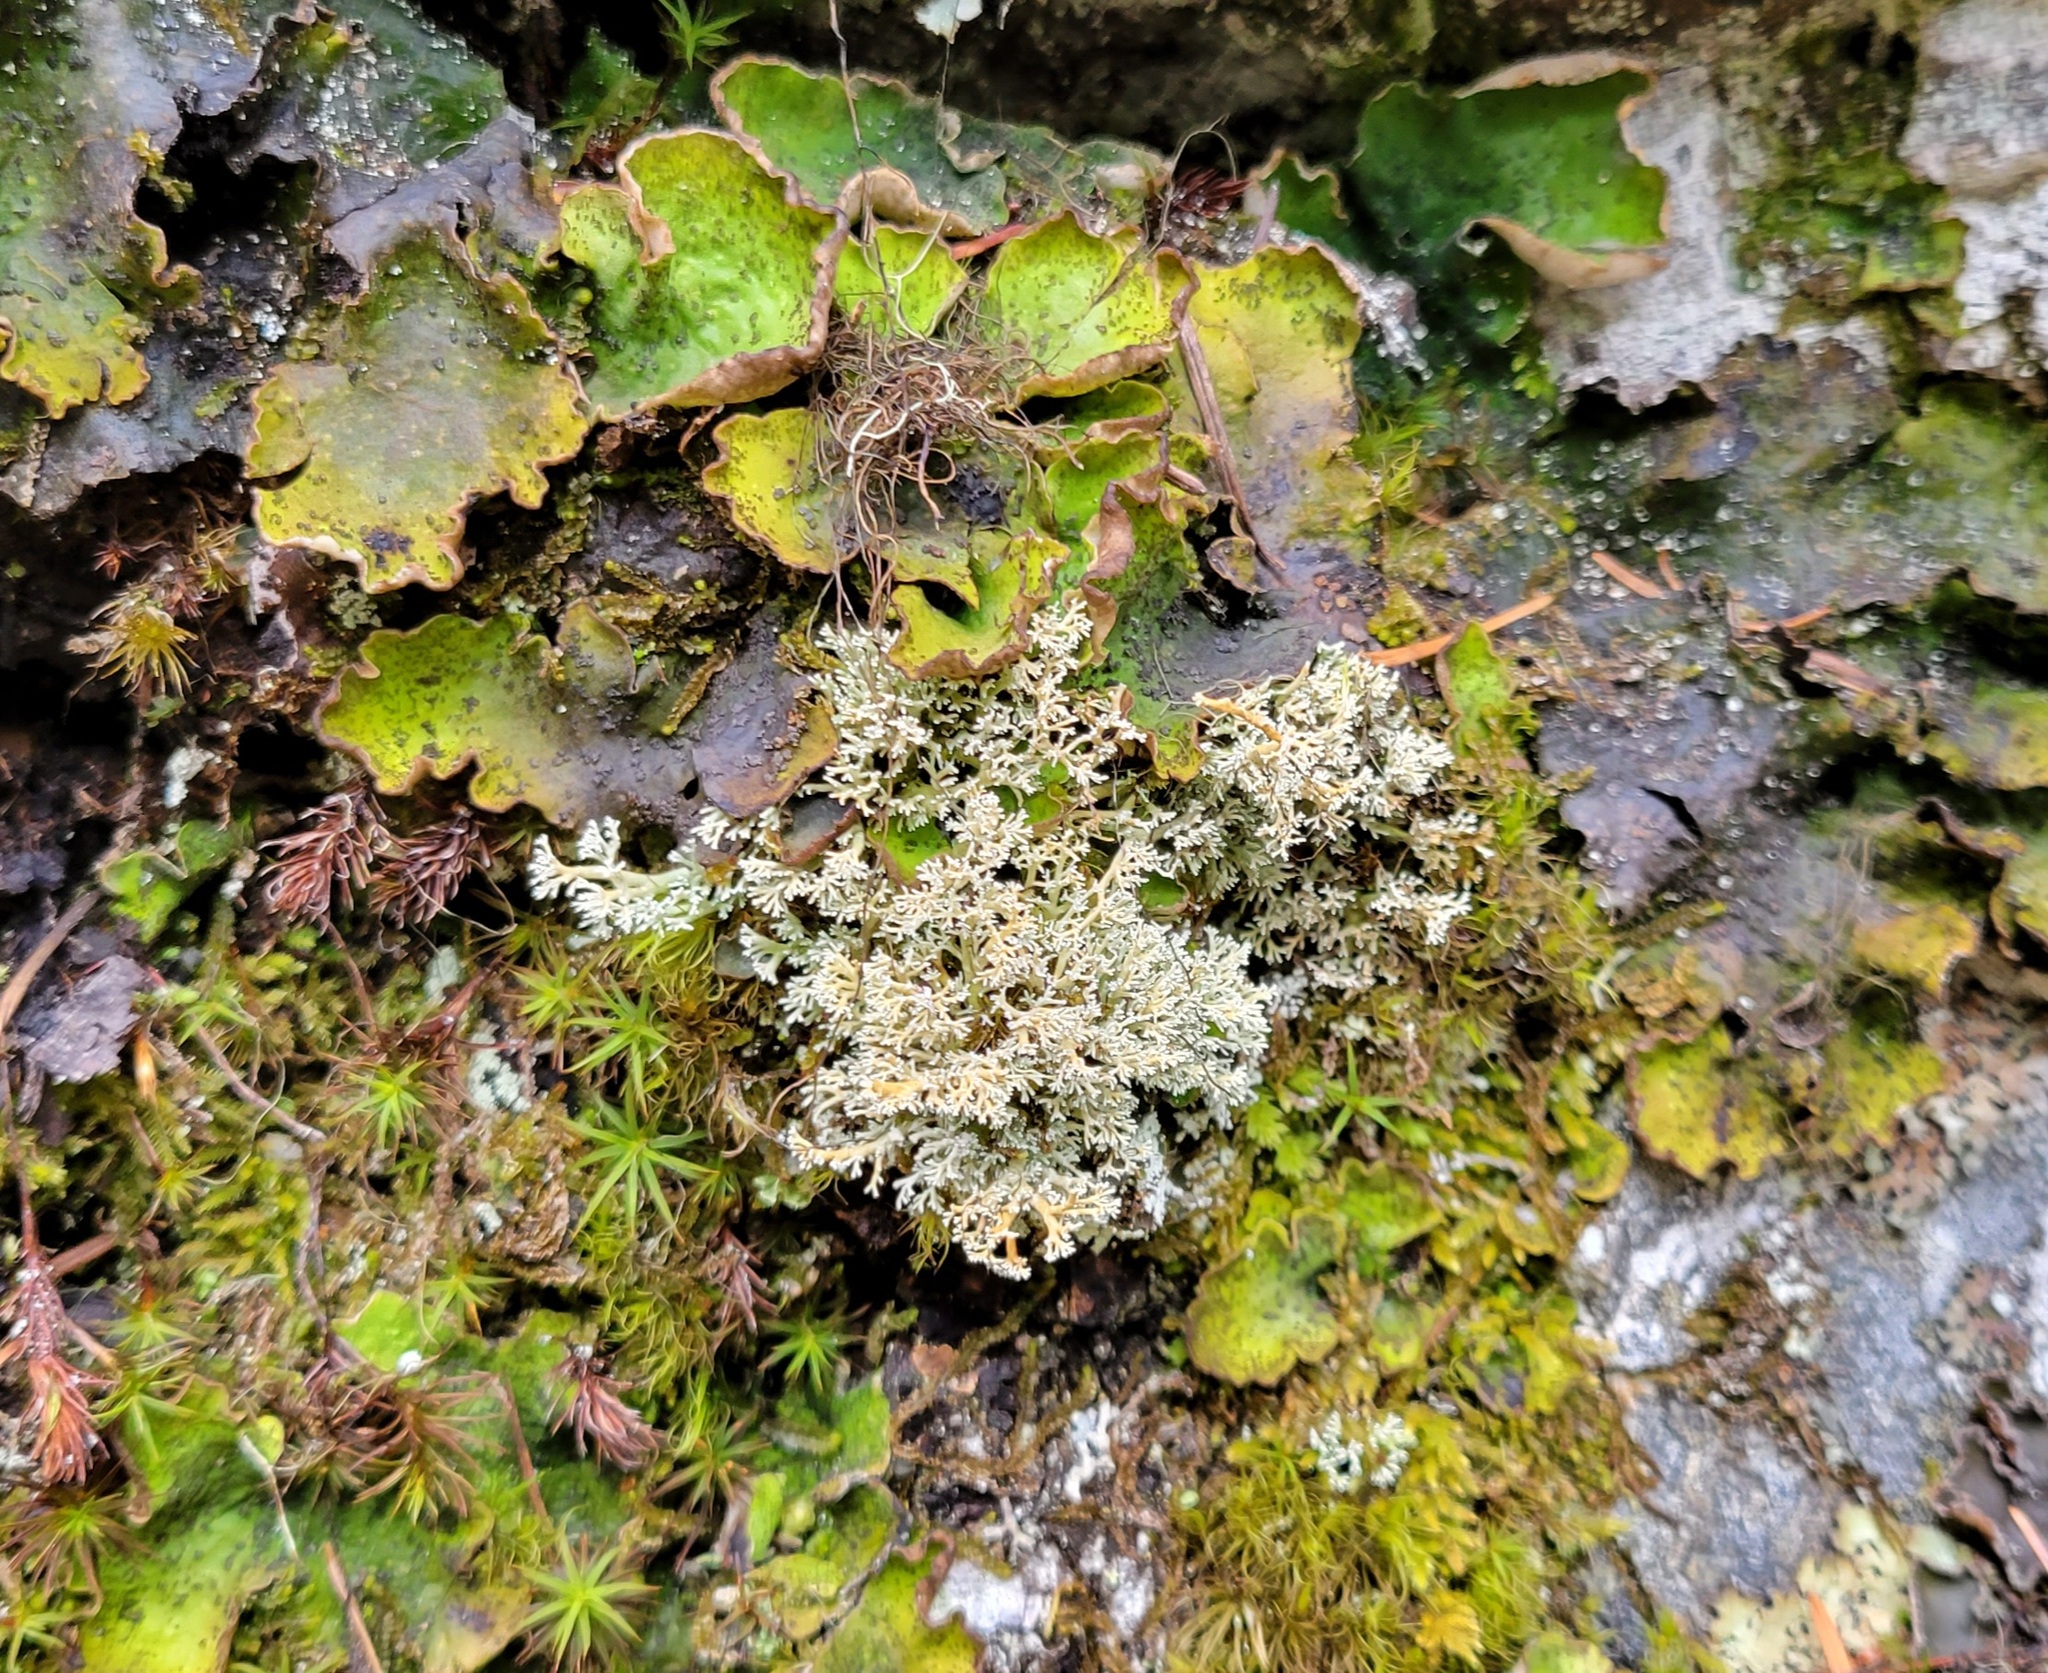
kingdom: Fungi
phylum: Ascomycota
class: Lecanoromycetes
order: Peltigerales
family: Peltigeraceae
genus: Peltigera
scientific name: Peltigera britannica
